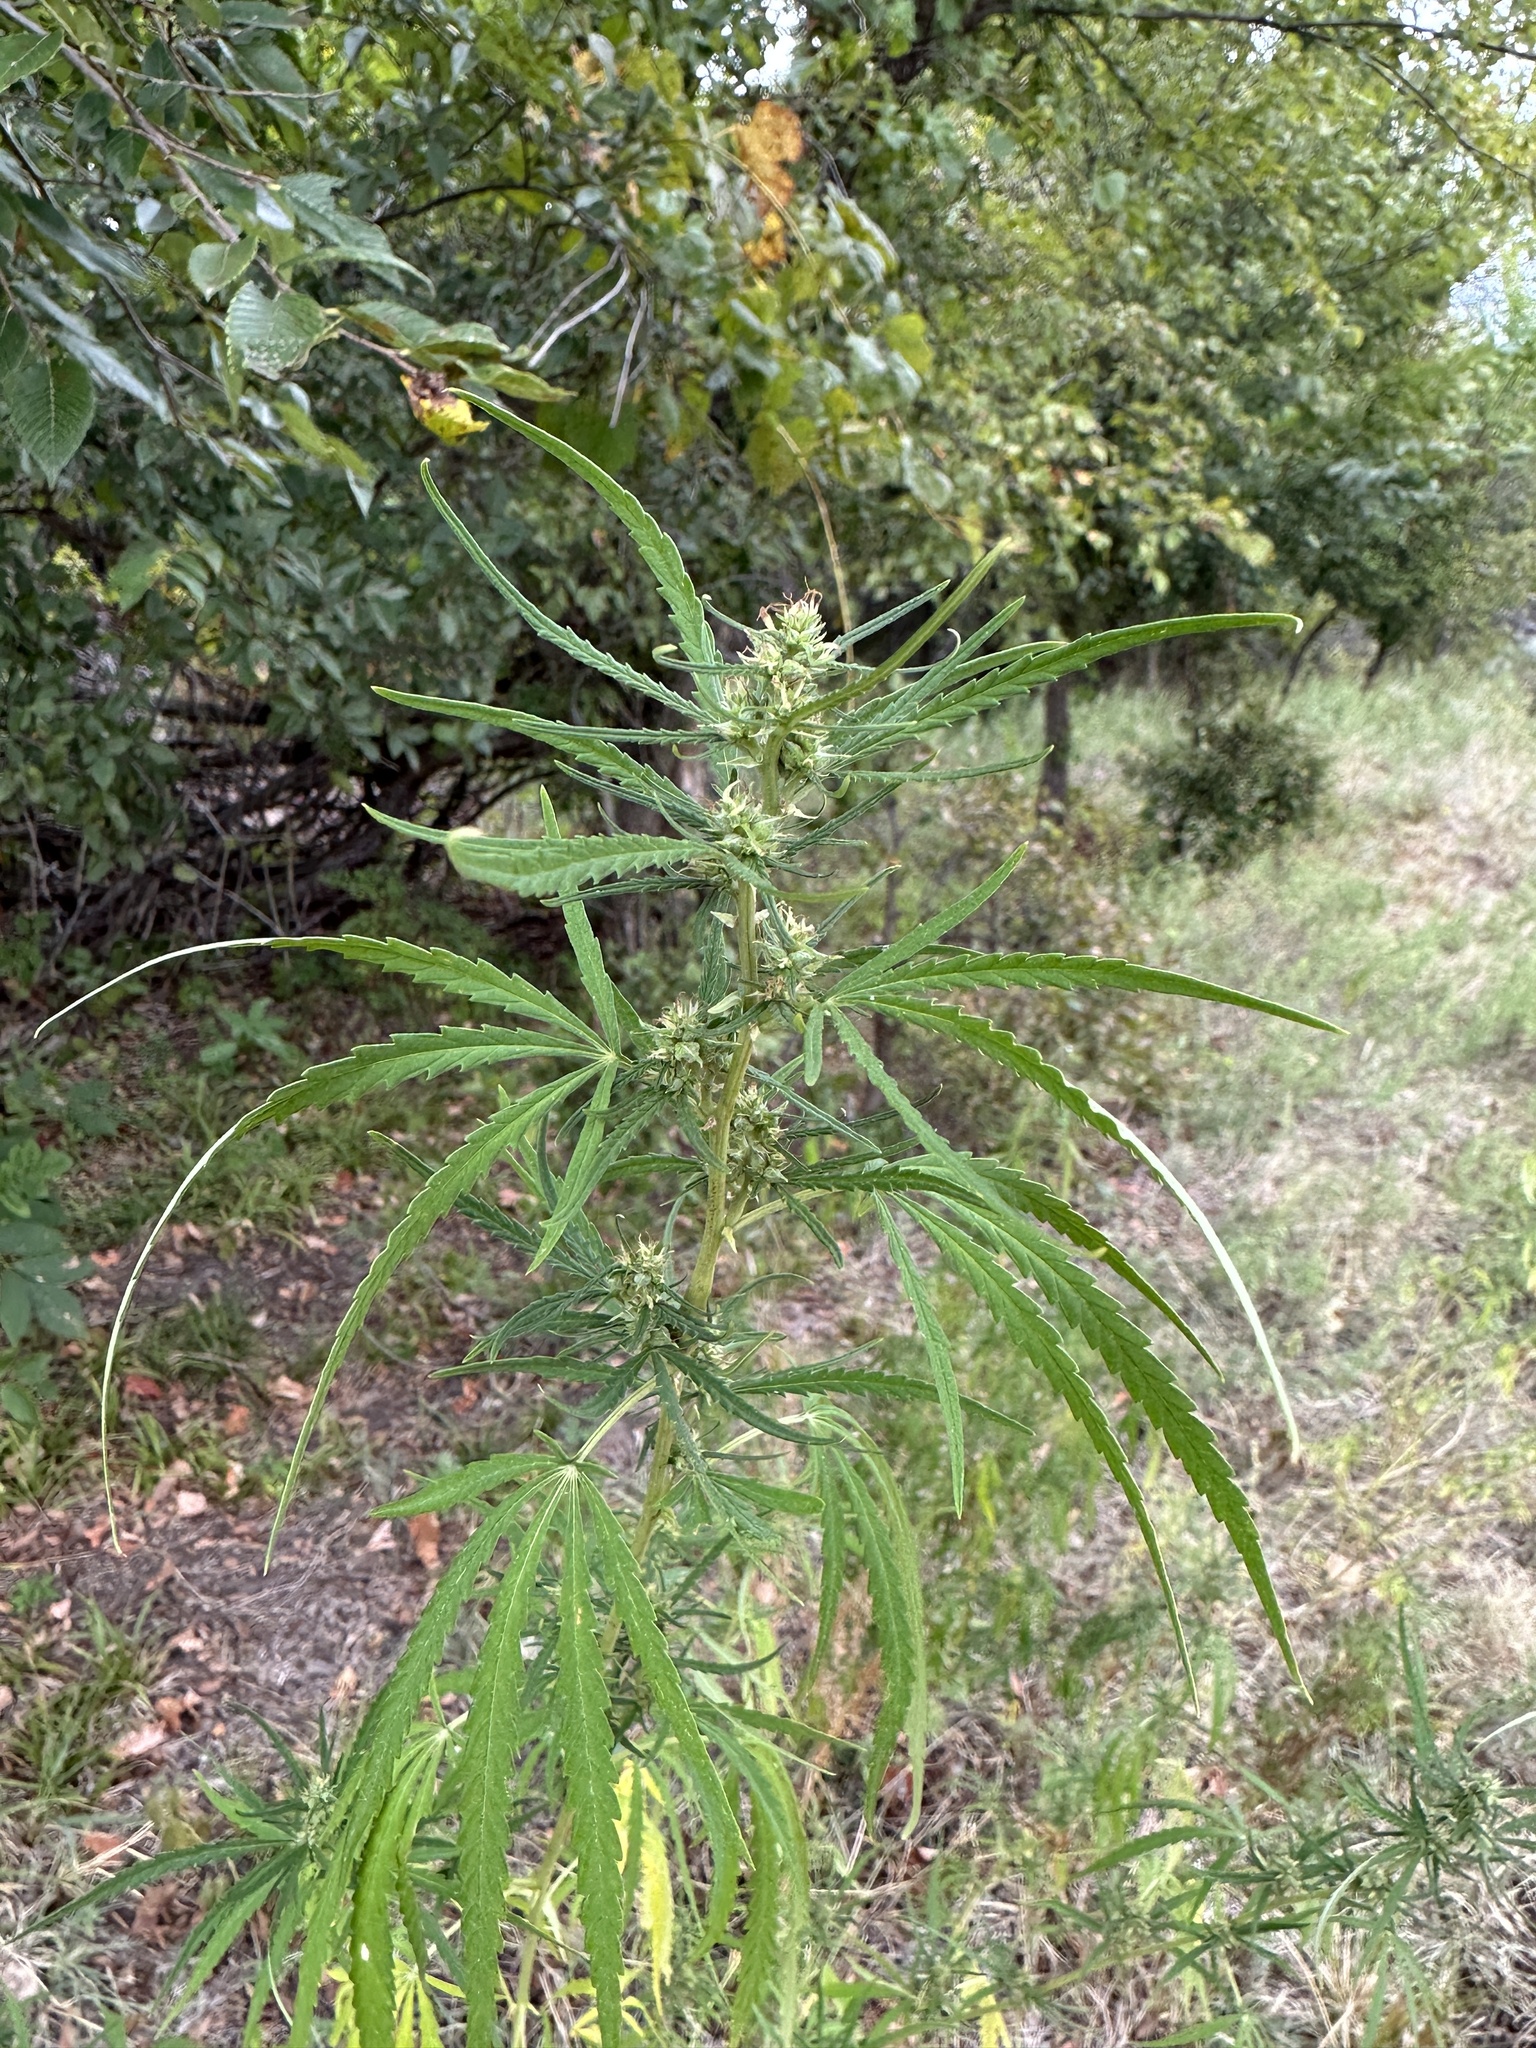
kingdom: Plantae
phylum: Tracheophyta
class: Magnoliopsida
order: Rosales
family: Cannabaceae
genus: Cannabis
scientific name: Cannabis sativa
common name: Hemp
